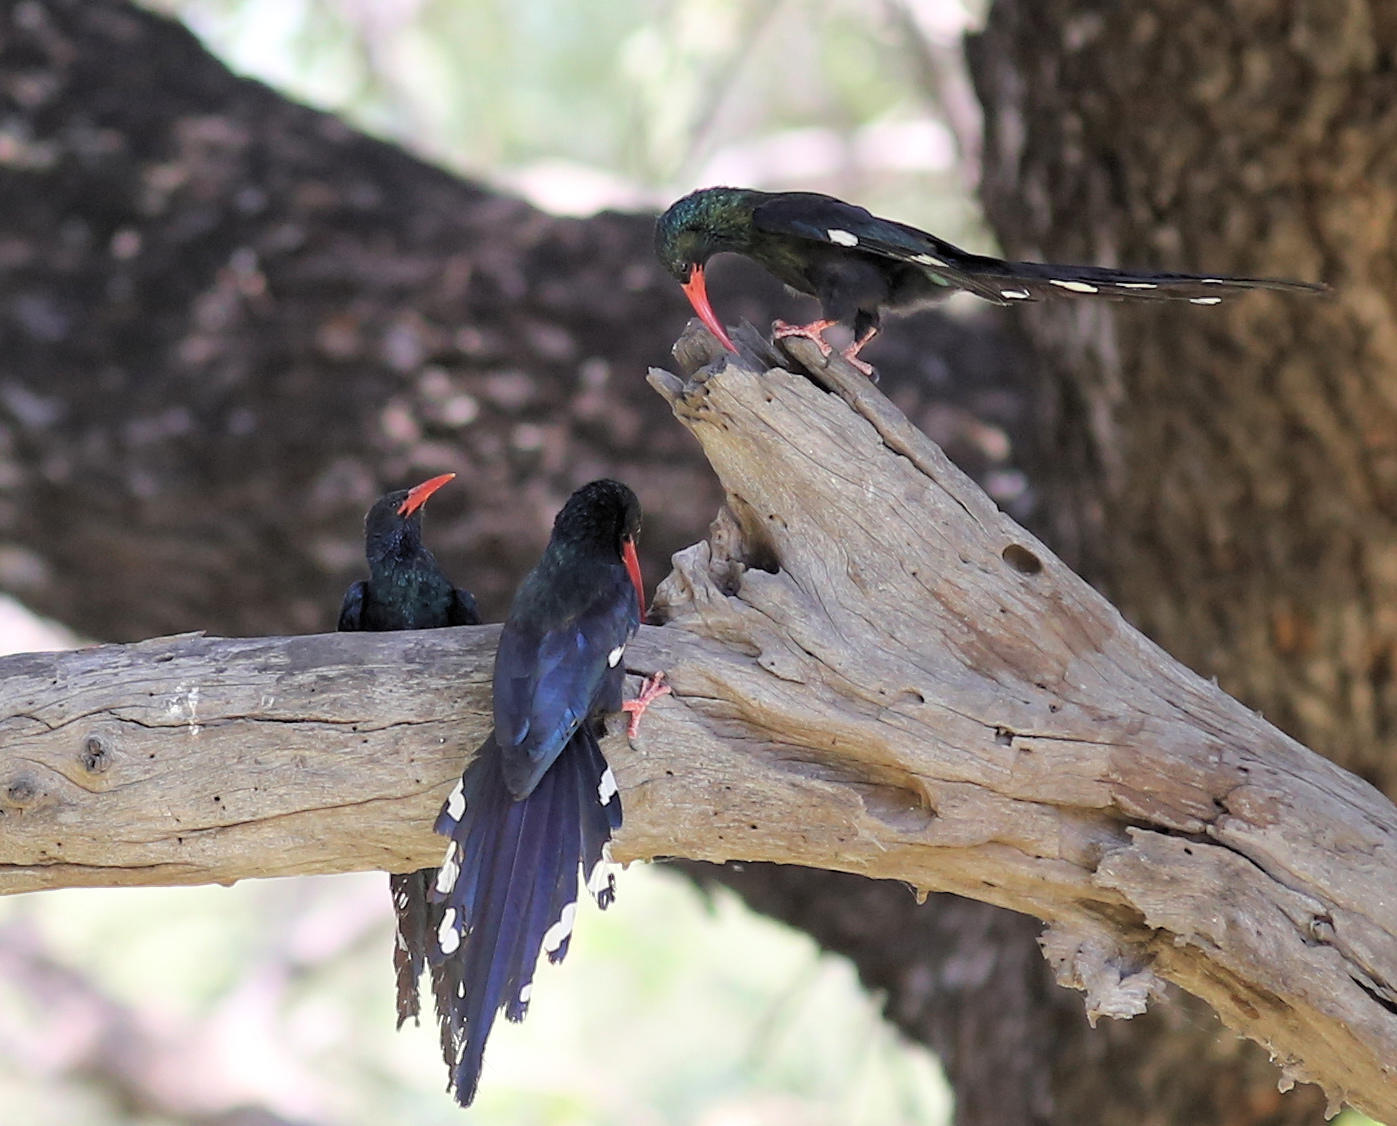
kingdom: Animalia
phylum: Chordata
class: Aves
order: Bucerotiformes
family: Phoeniculidae
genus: Phoeniculus
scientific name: Phoeniculus purpureus
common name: Green woodhoopoe
